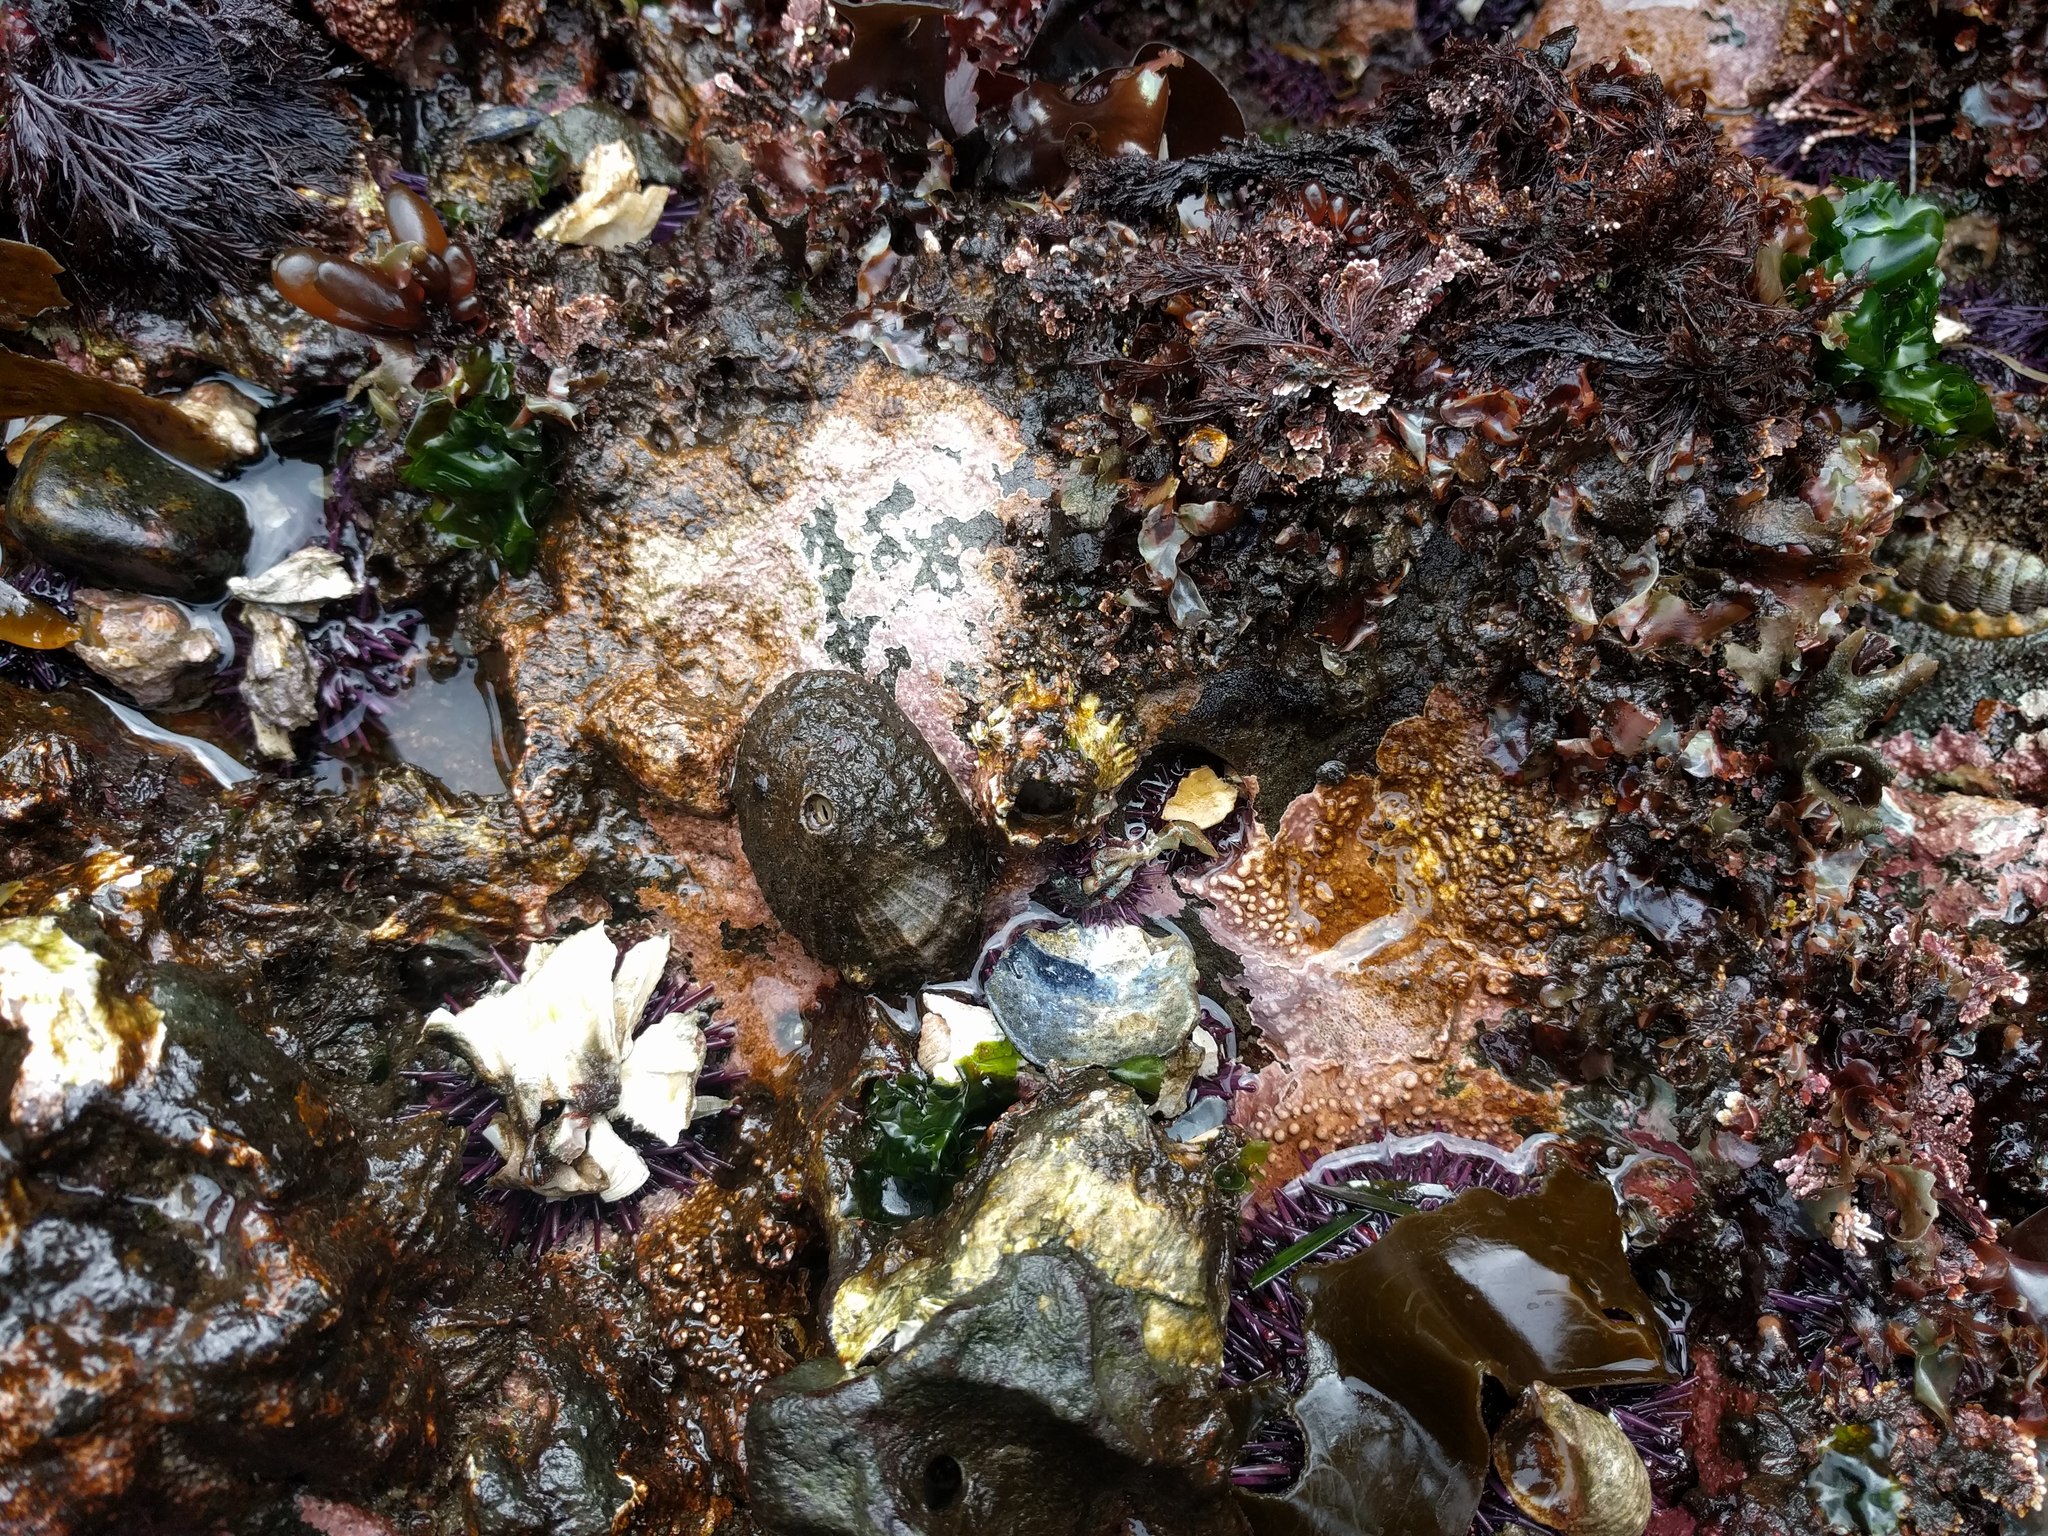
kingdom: Animalia
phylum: Mollusca
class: Gastropoda
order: Lepetellida
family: Fissurellidae
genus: Diodora
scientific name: Diodora aspera
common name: Rough keyhole limpet
